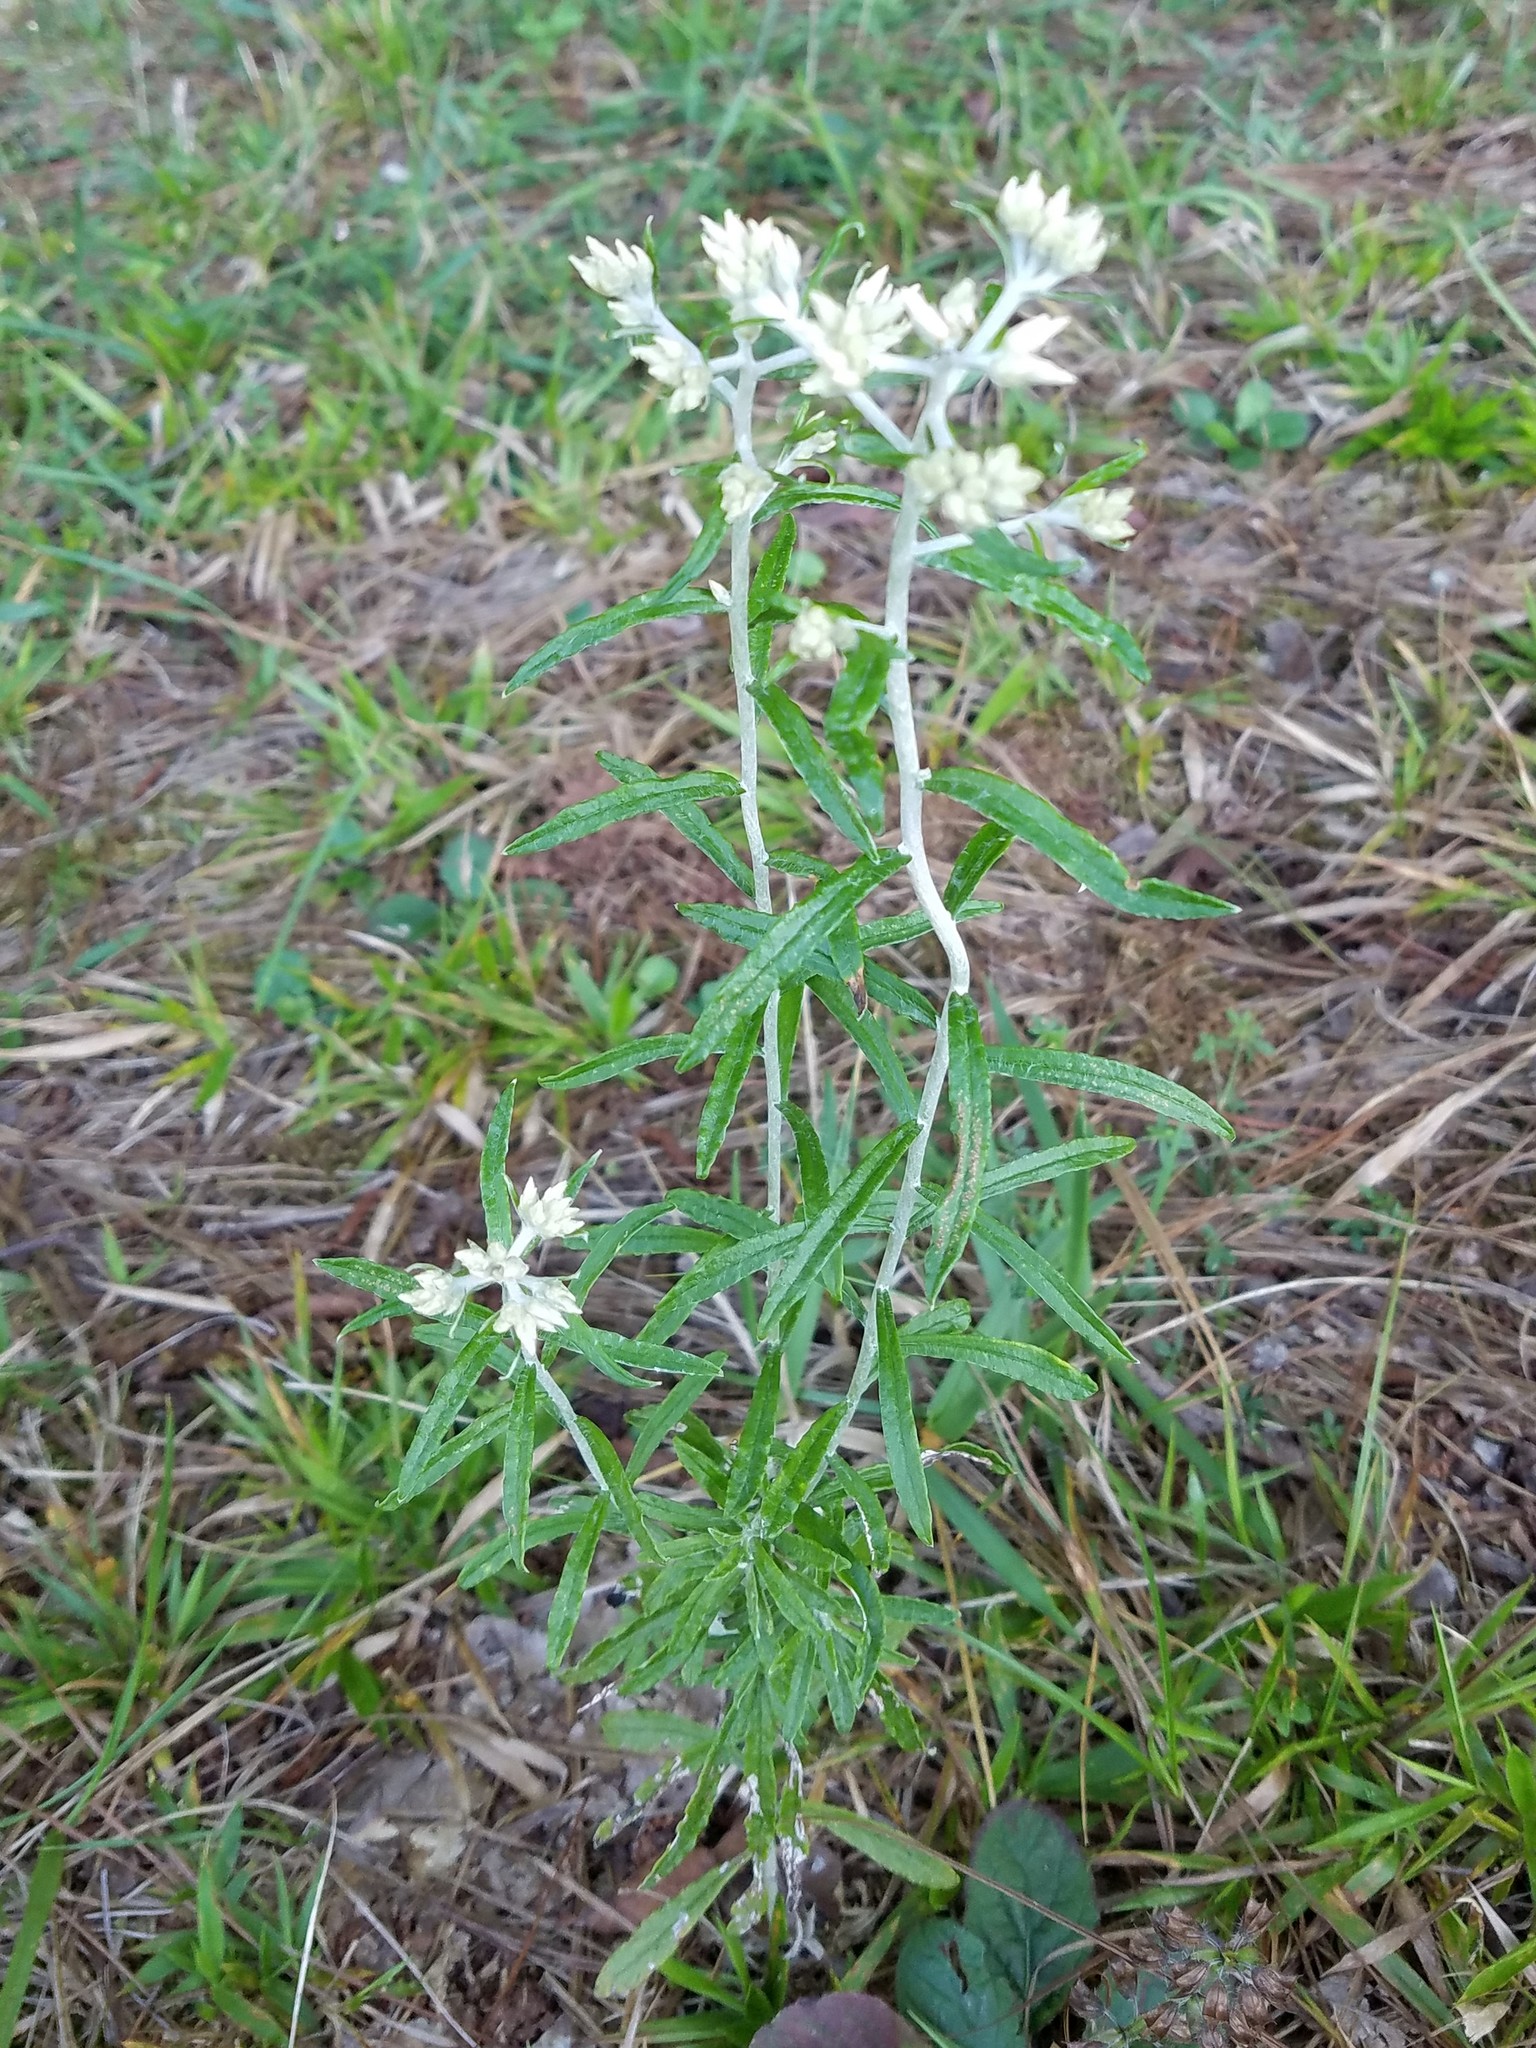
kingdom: Plantae
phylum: Tracheophyta
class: Magnoliopsida
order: Asterales
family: Asteraceae
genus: Pseudognaphalium
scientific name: Pseudognaphalium obtusifolium
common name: Eastern rabbit-tobacco
